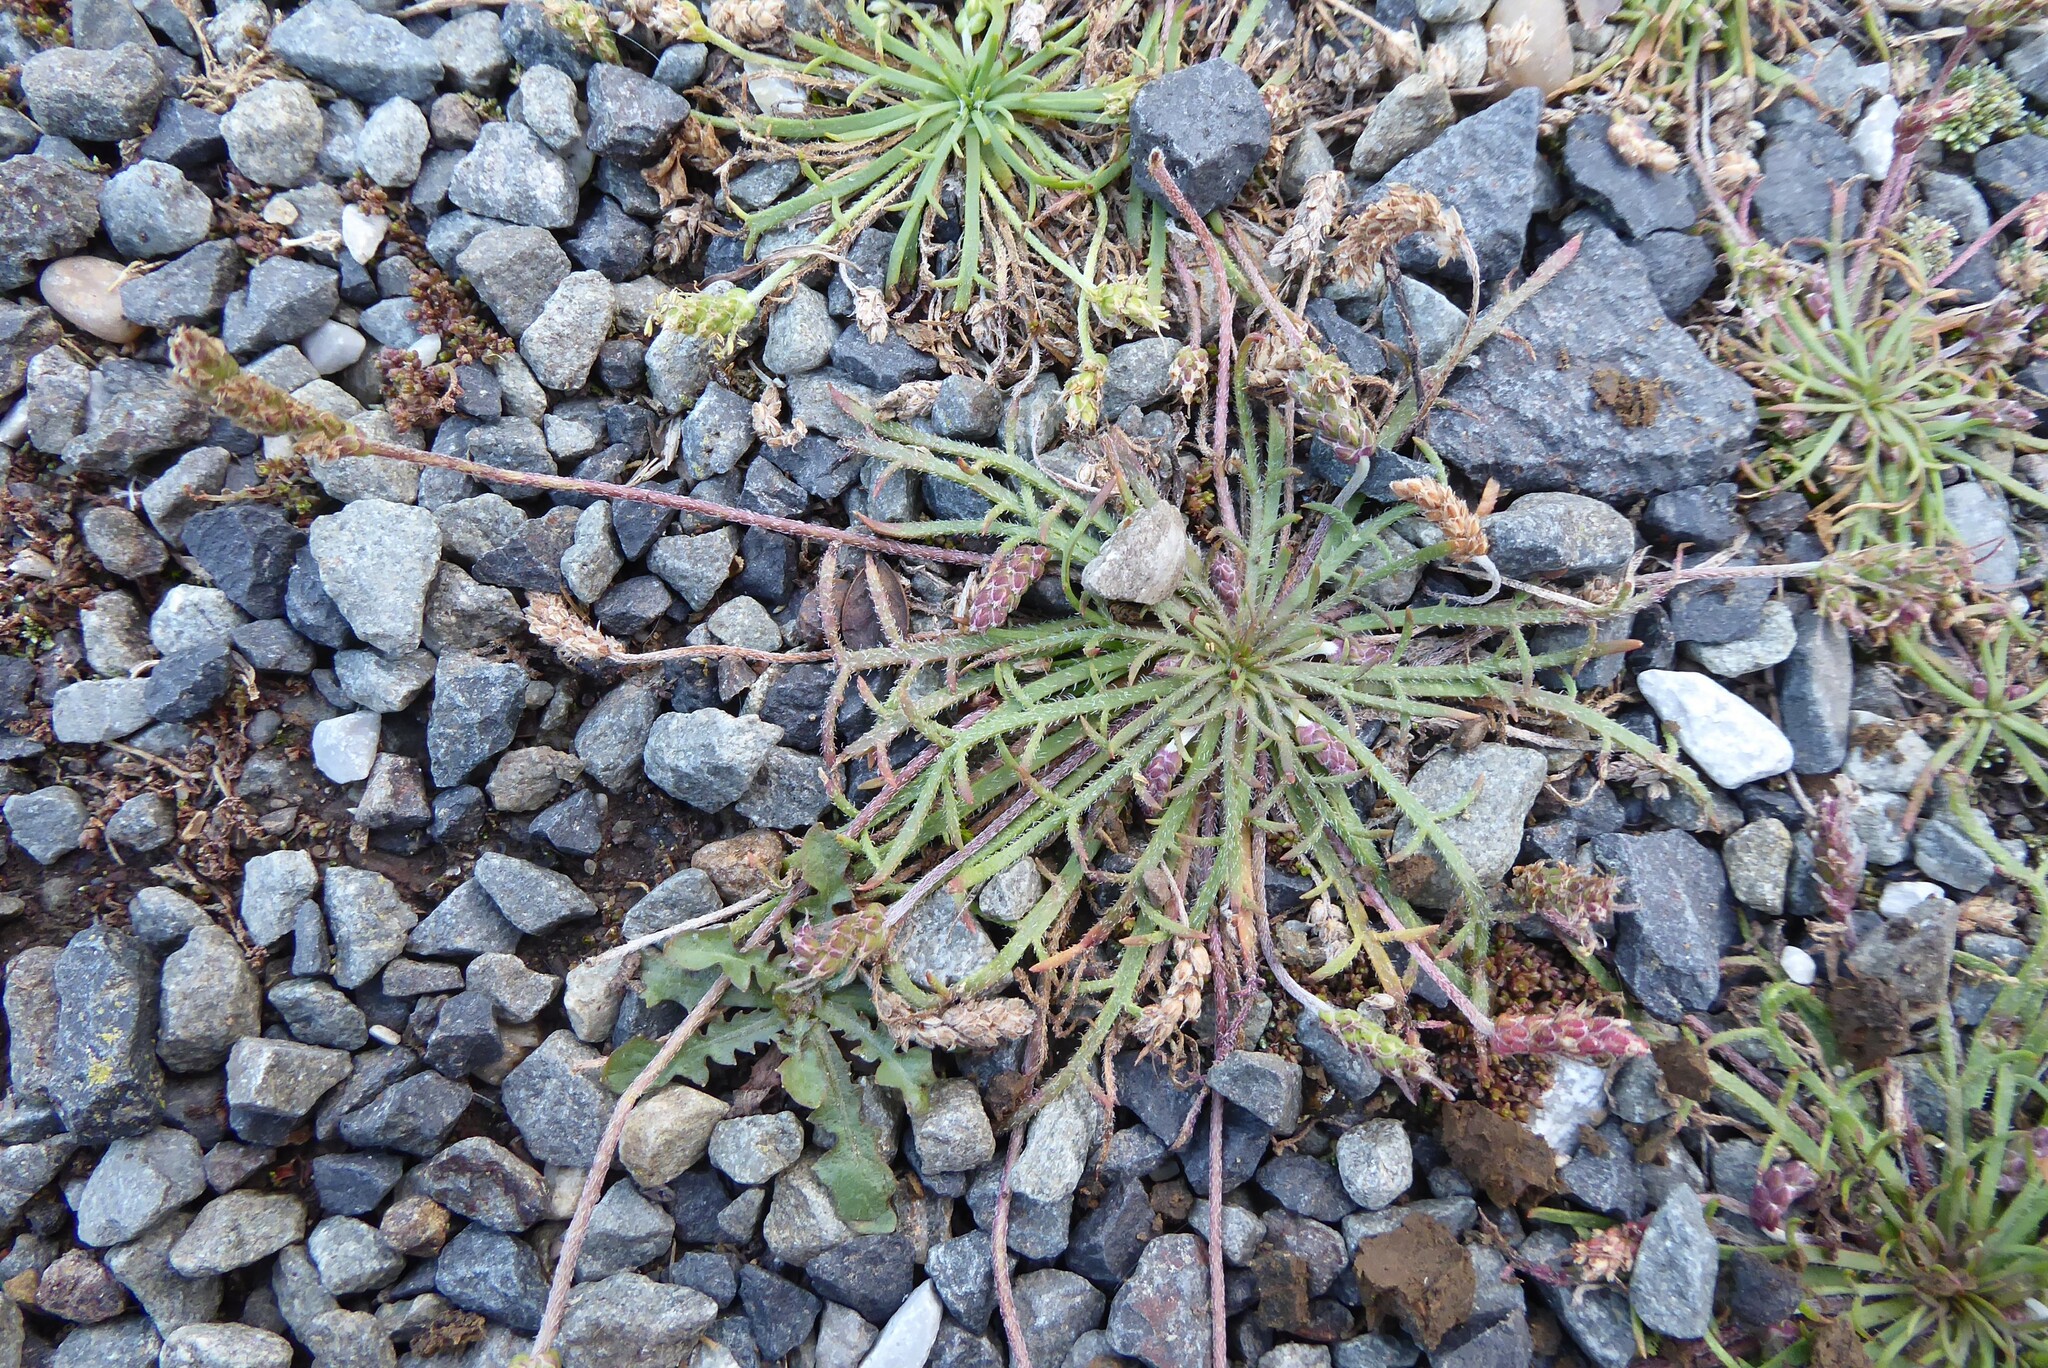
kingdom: Plantae
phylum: Tracheophyta
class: Magnoliopsida
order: Lamiales
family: Plantaginaceae
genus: Plantago
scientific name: Plantago coronopus
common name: Buck's-horn plantain
